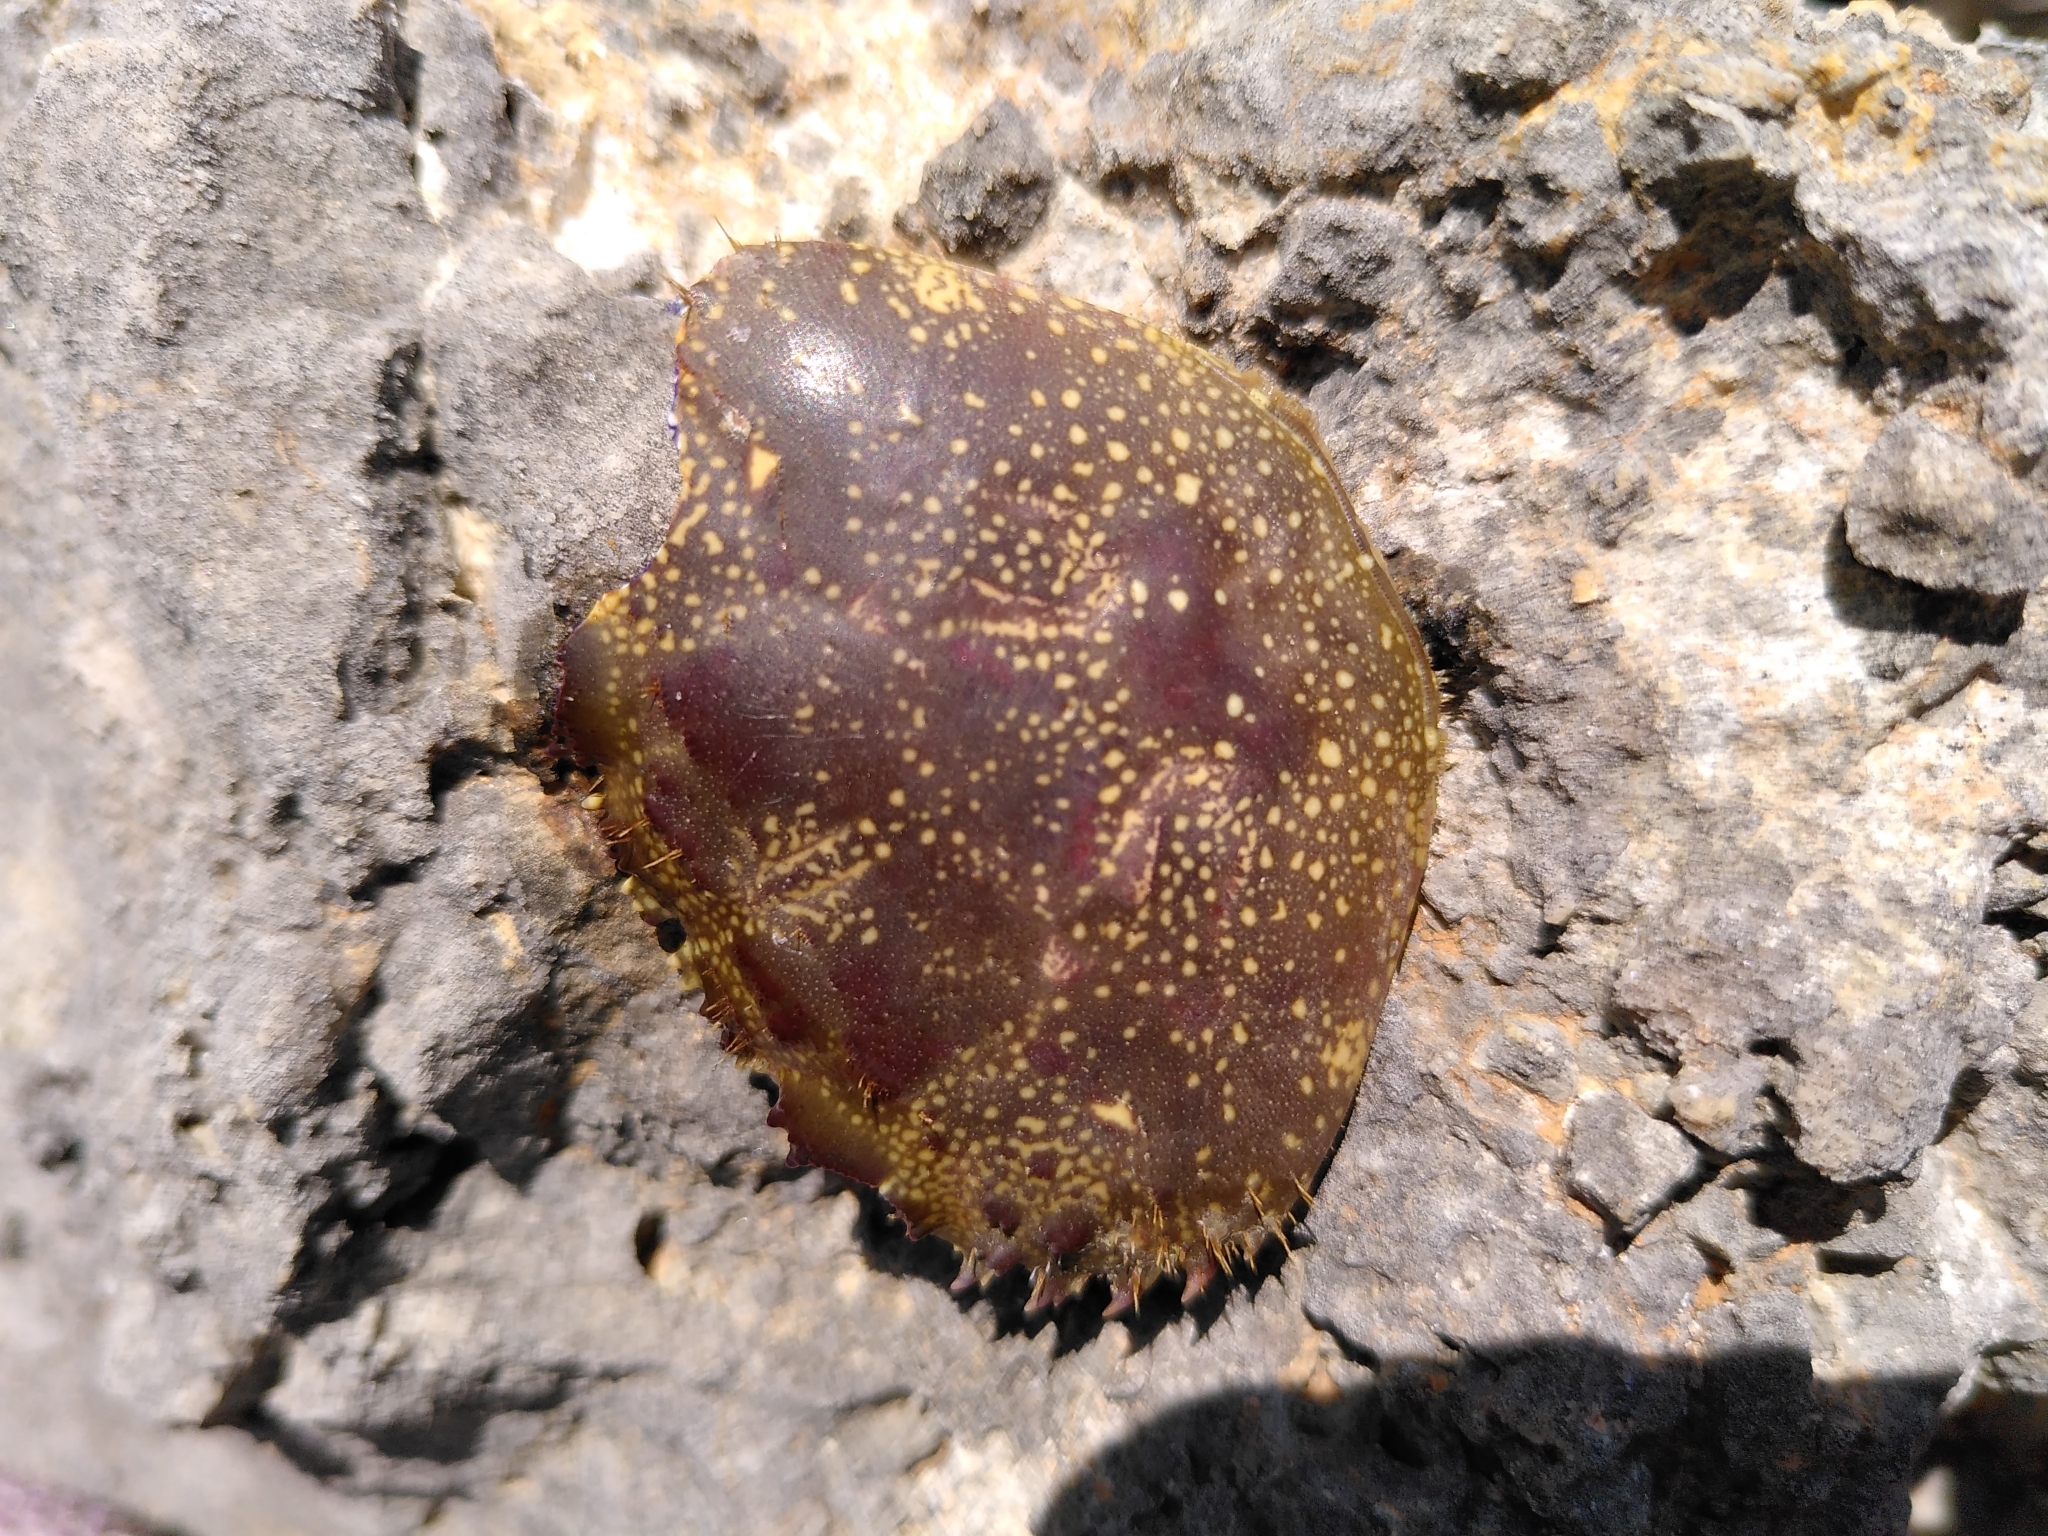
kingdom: Animalia
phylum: Arthropoda
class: Malacostraca
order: Decapoda
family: Eriphiidae
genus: Eriphia
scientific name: Eriphia verrucosa
